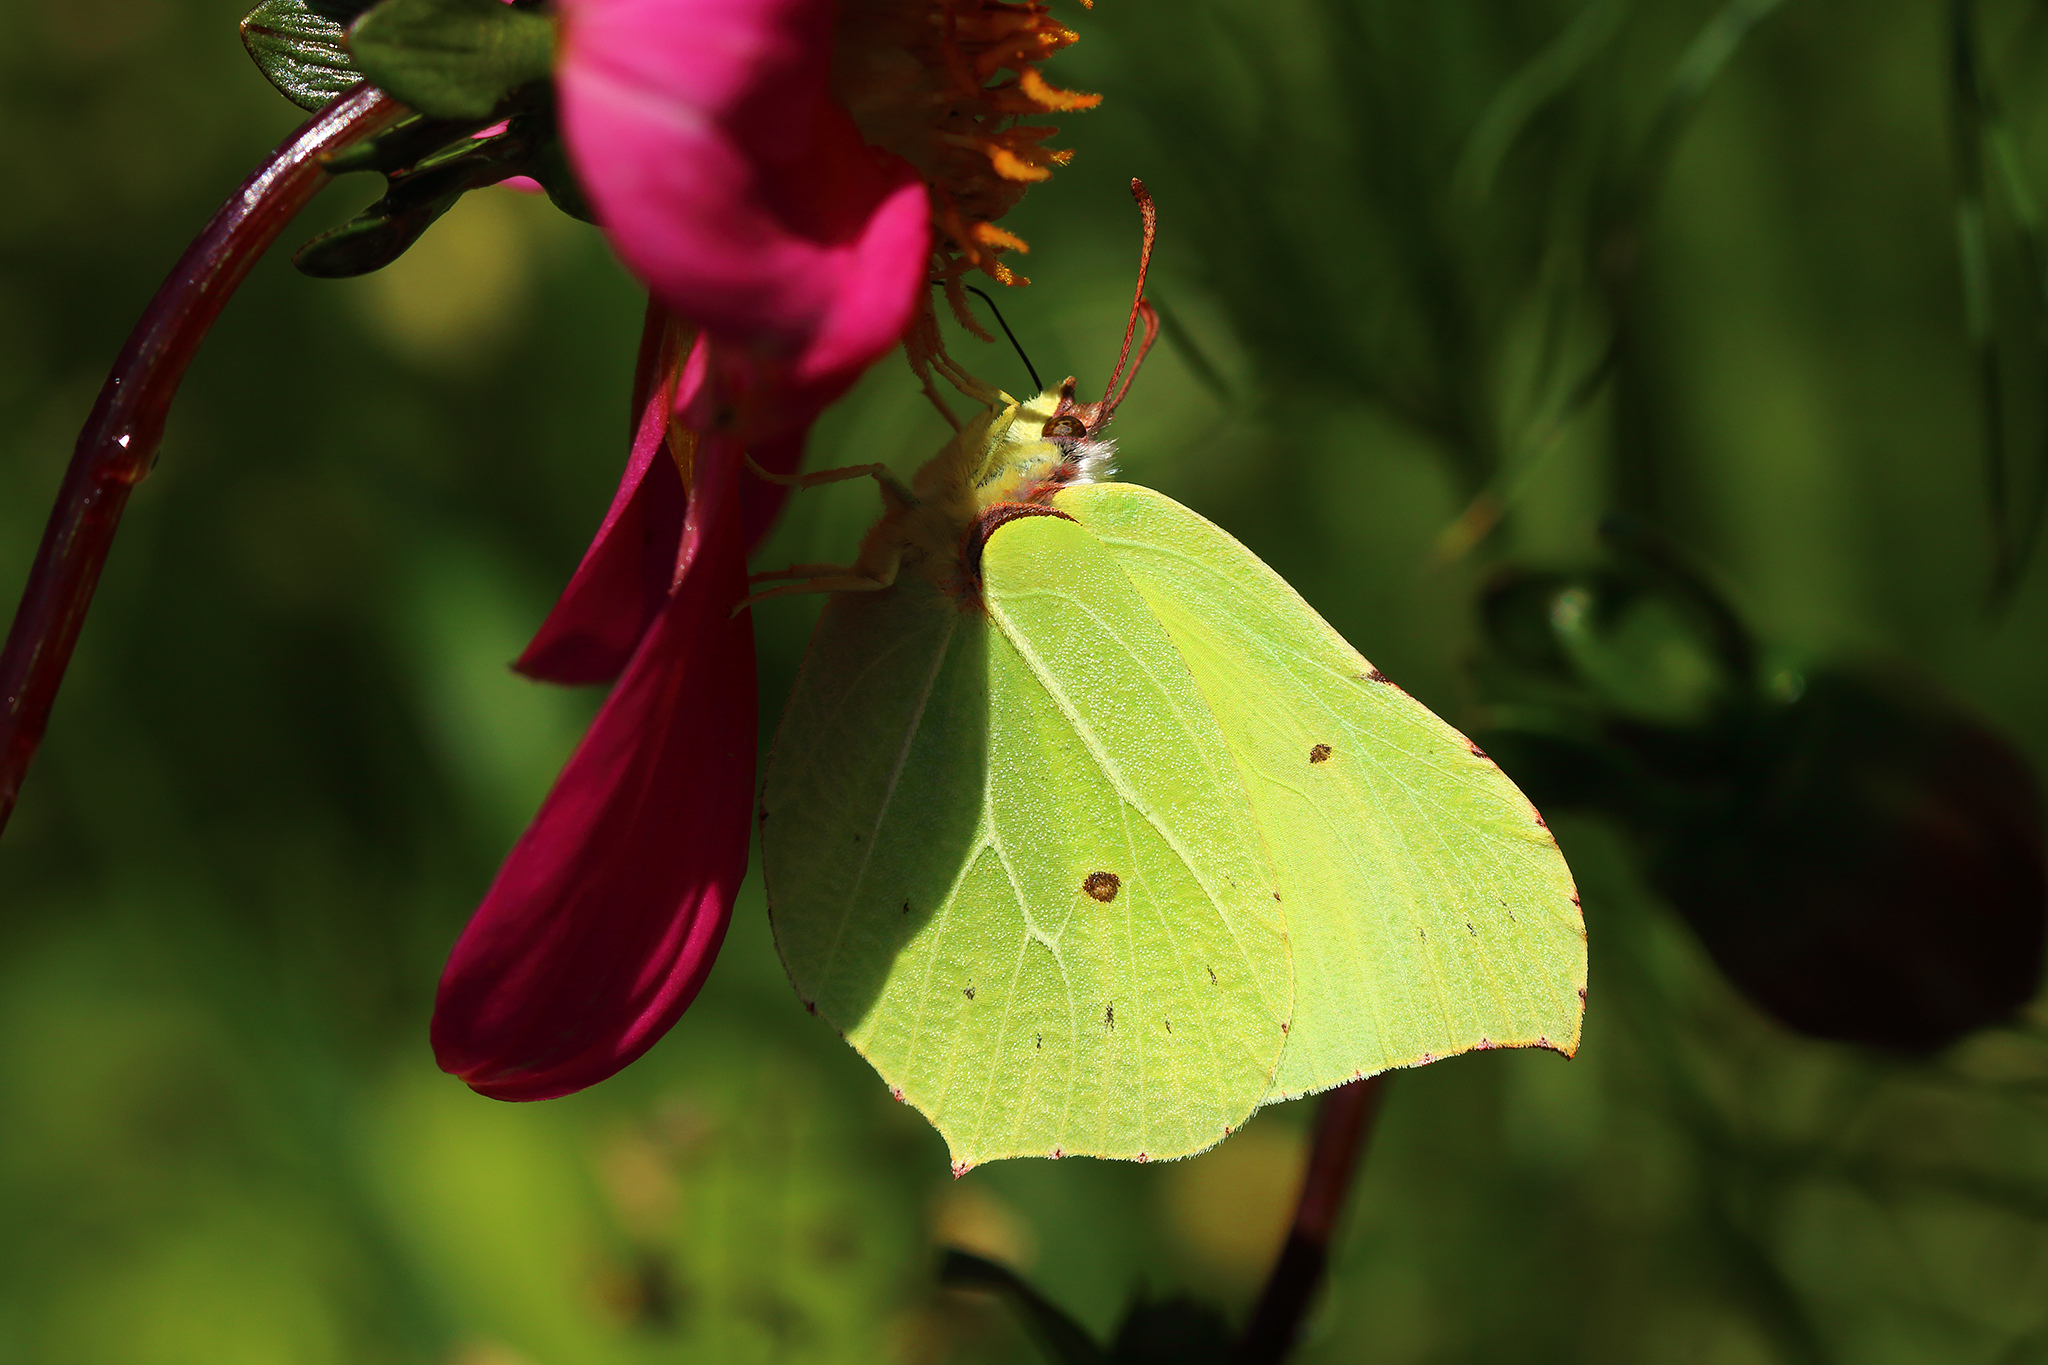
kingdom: Animalia
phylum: Arthropoda
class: Insecta
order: Lepidoptera
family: Pieridae
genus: Gonepteryx
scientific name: Gonepteryx rhamni
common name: Brimstone
